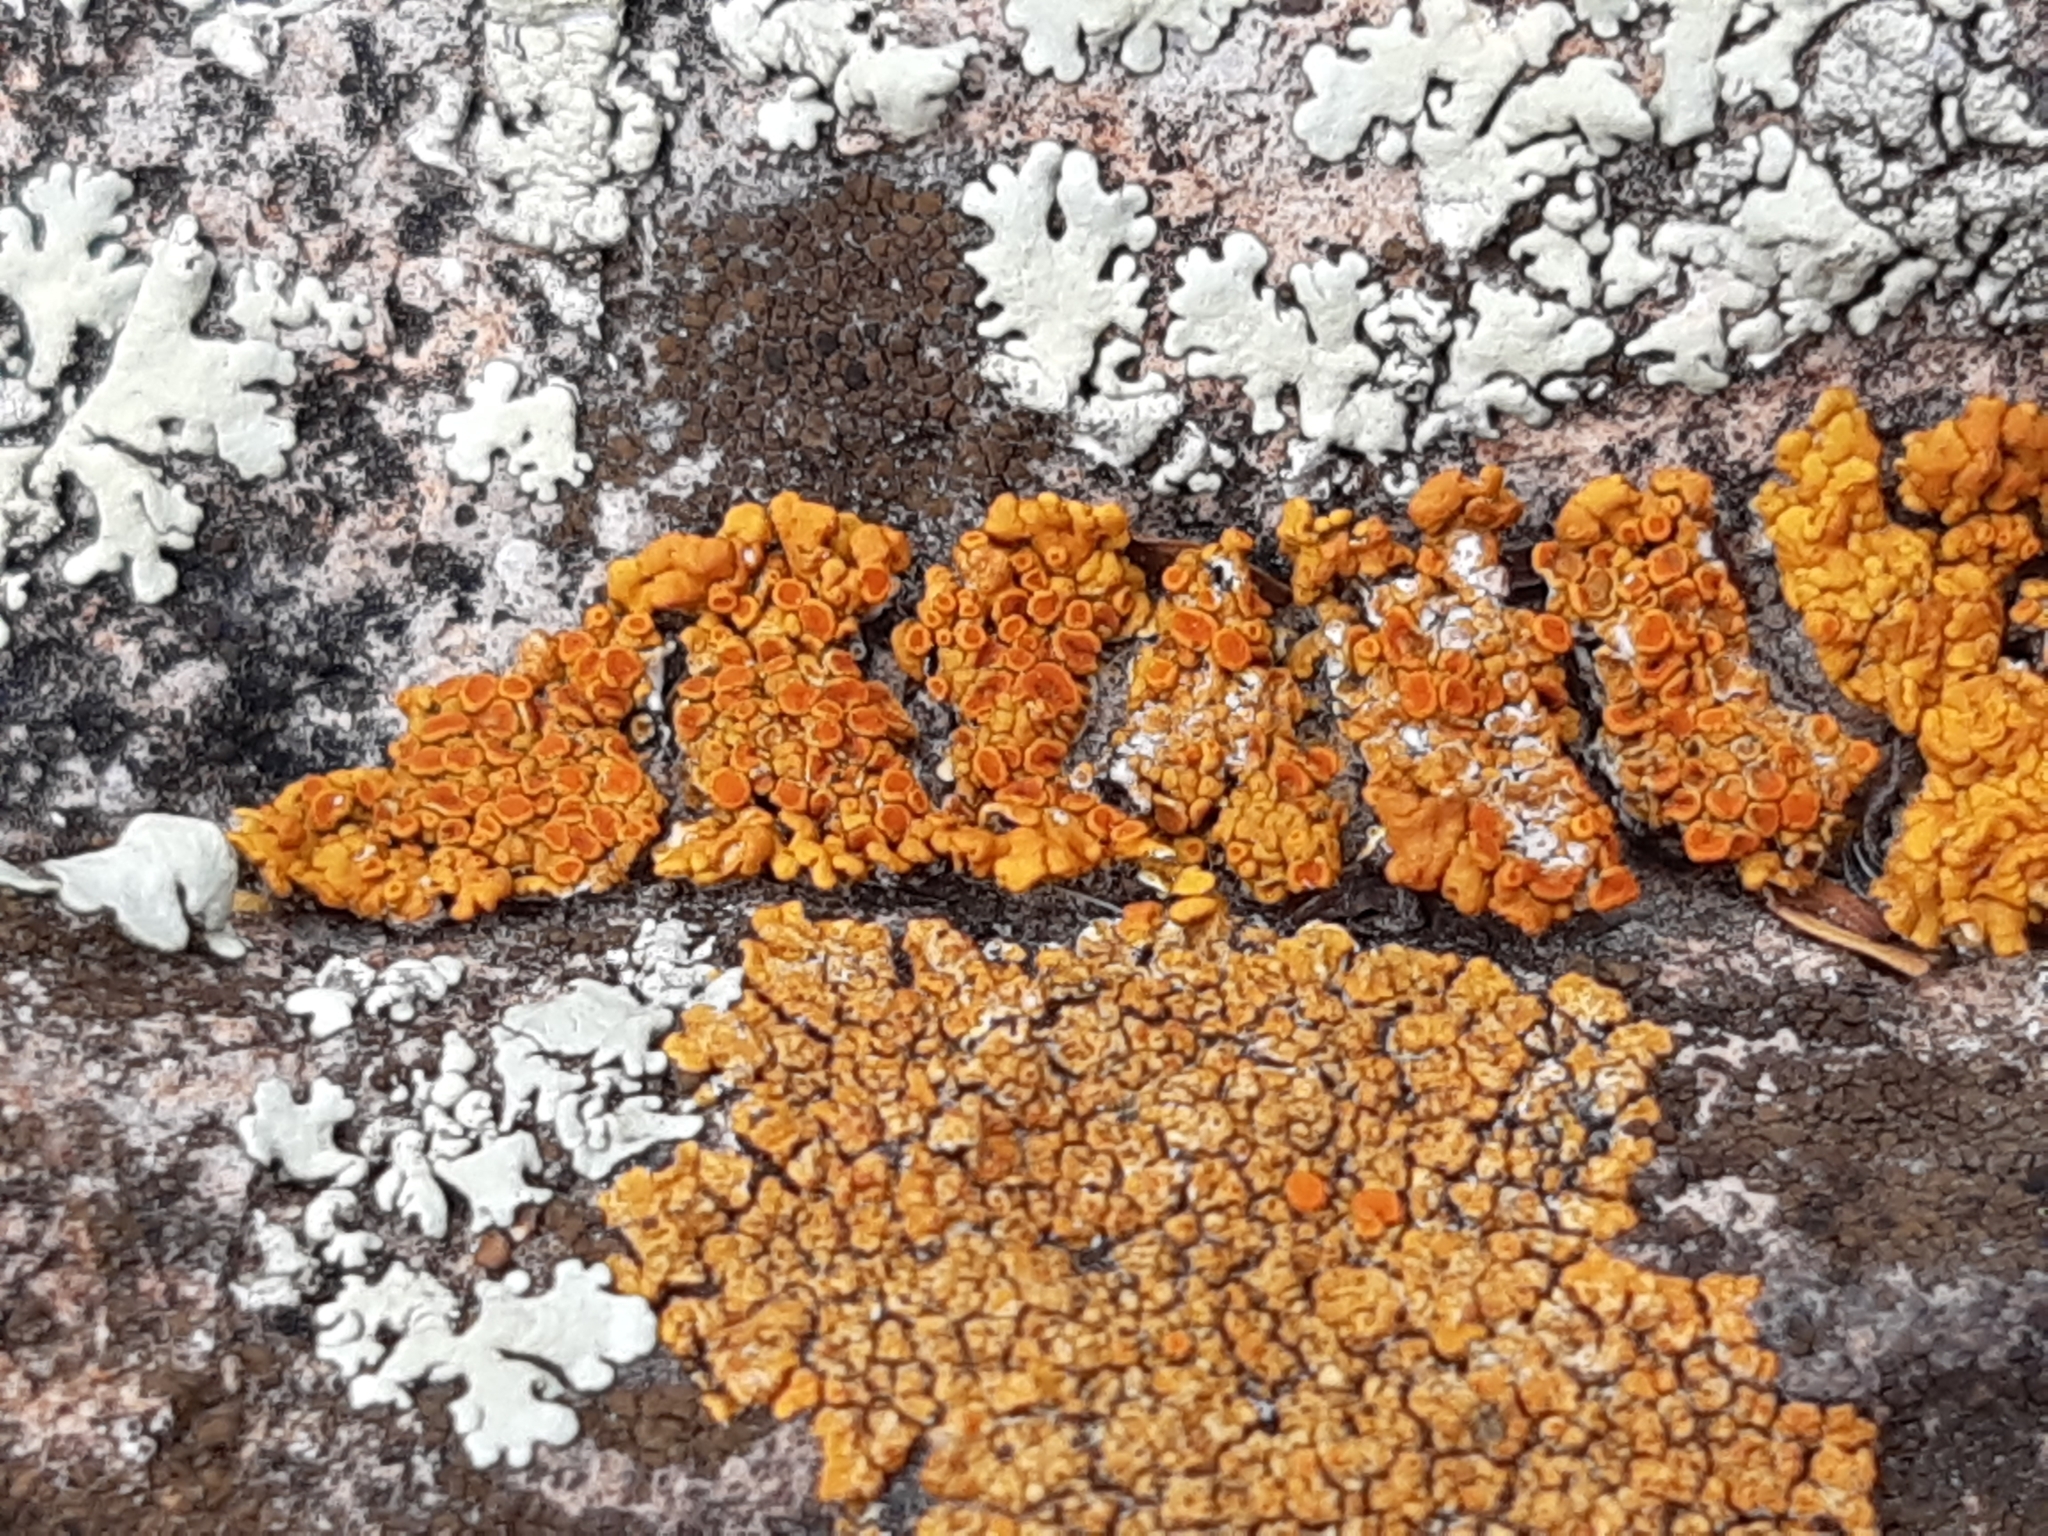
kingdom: Fungi
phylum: Ascomycota
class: Lecanoromycetes
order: Teloschistales
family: Teloschistaceae
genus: Squamulea
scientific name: Squamulea subsoluta
